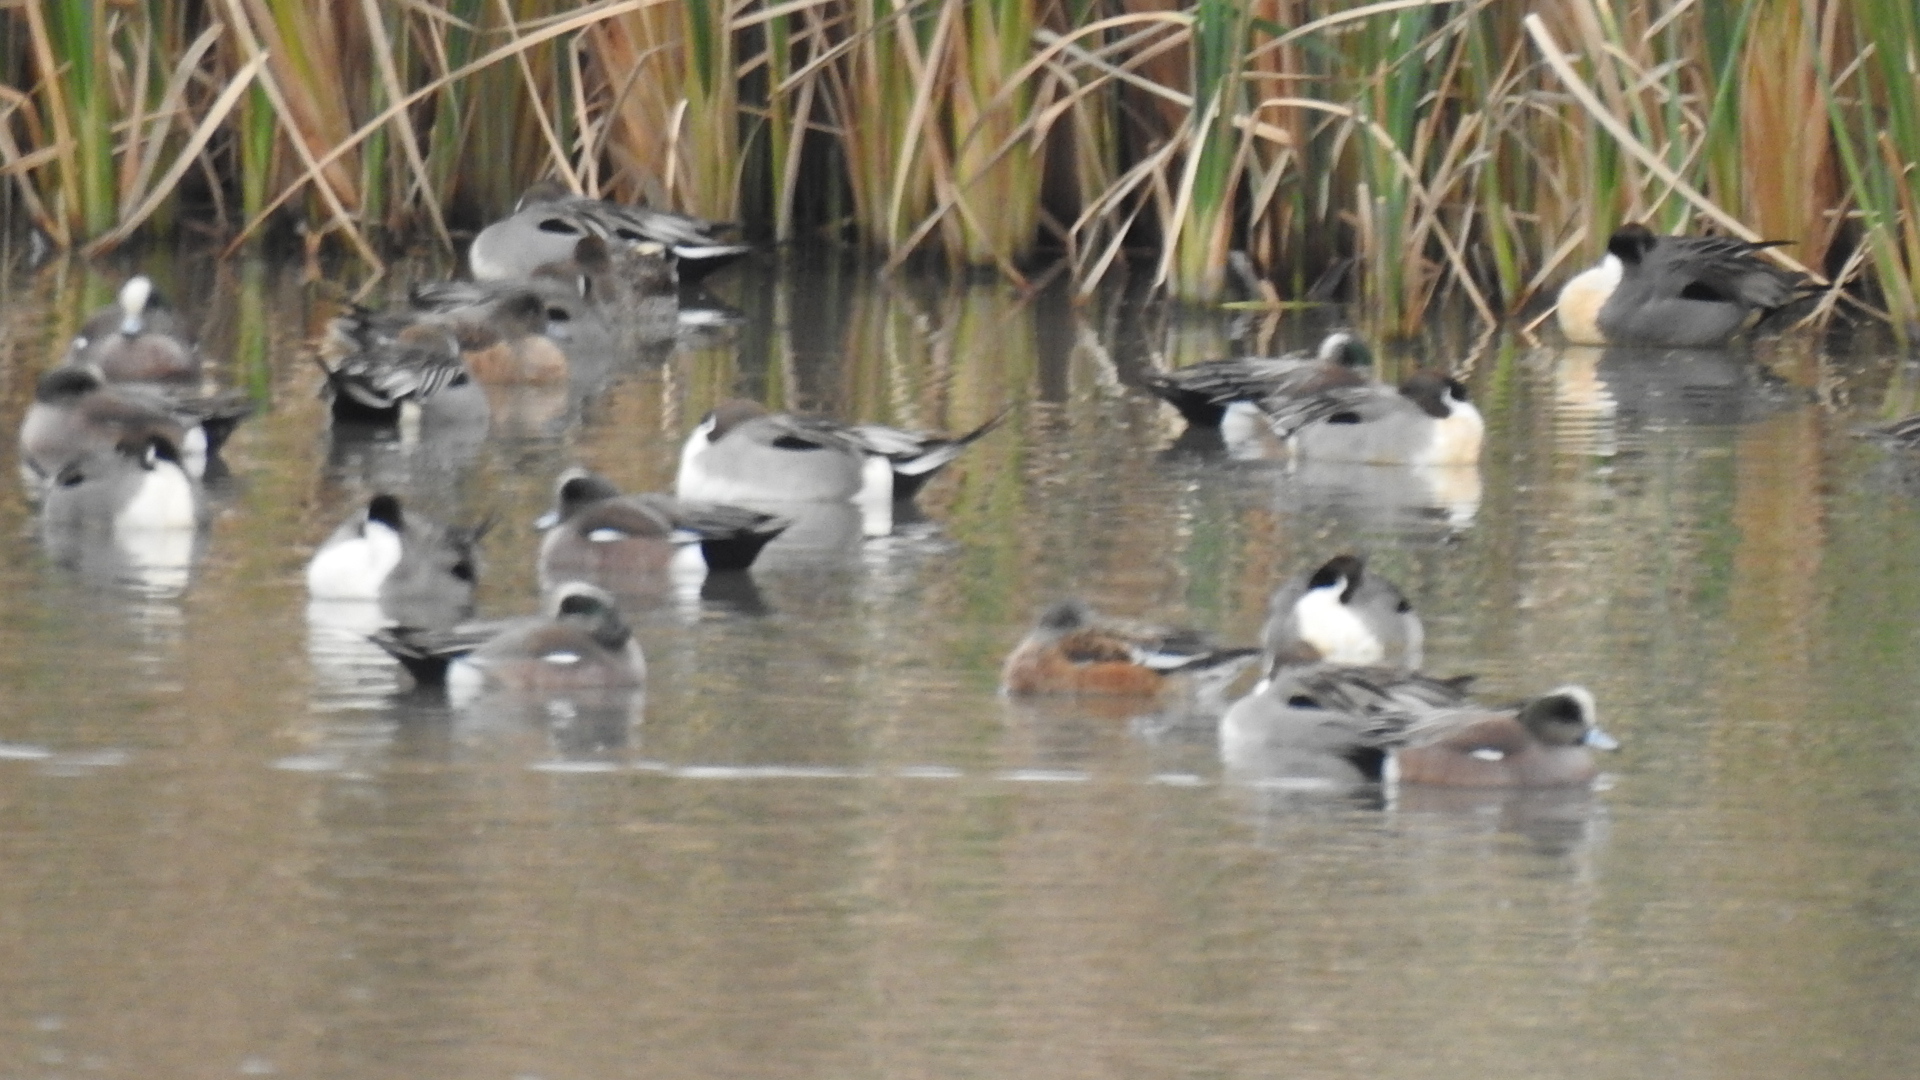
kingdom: Animalia
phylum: Chordata
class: Aves
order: Anseriformes
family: Anatidae
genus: Mareca
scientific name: Mareca americana
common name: American wigeon
